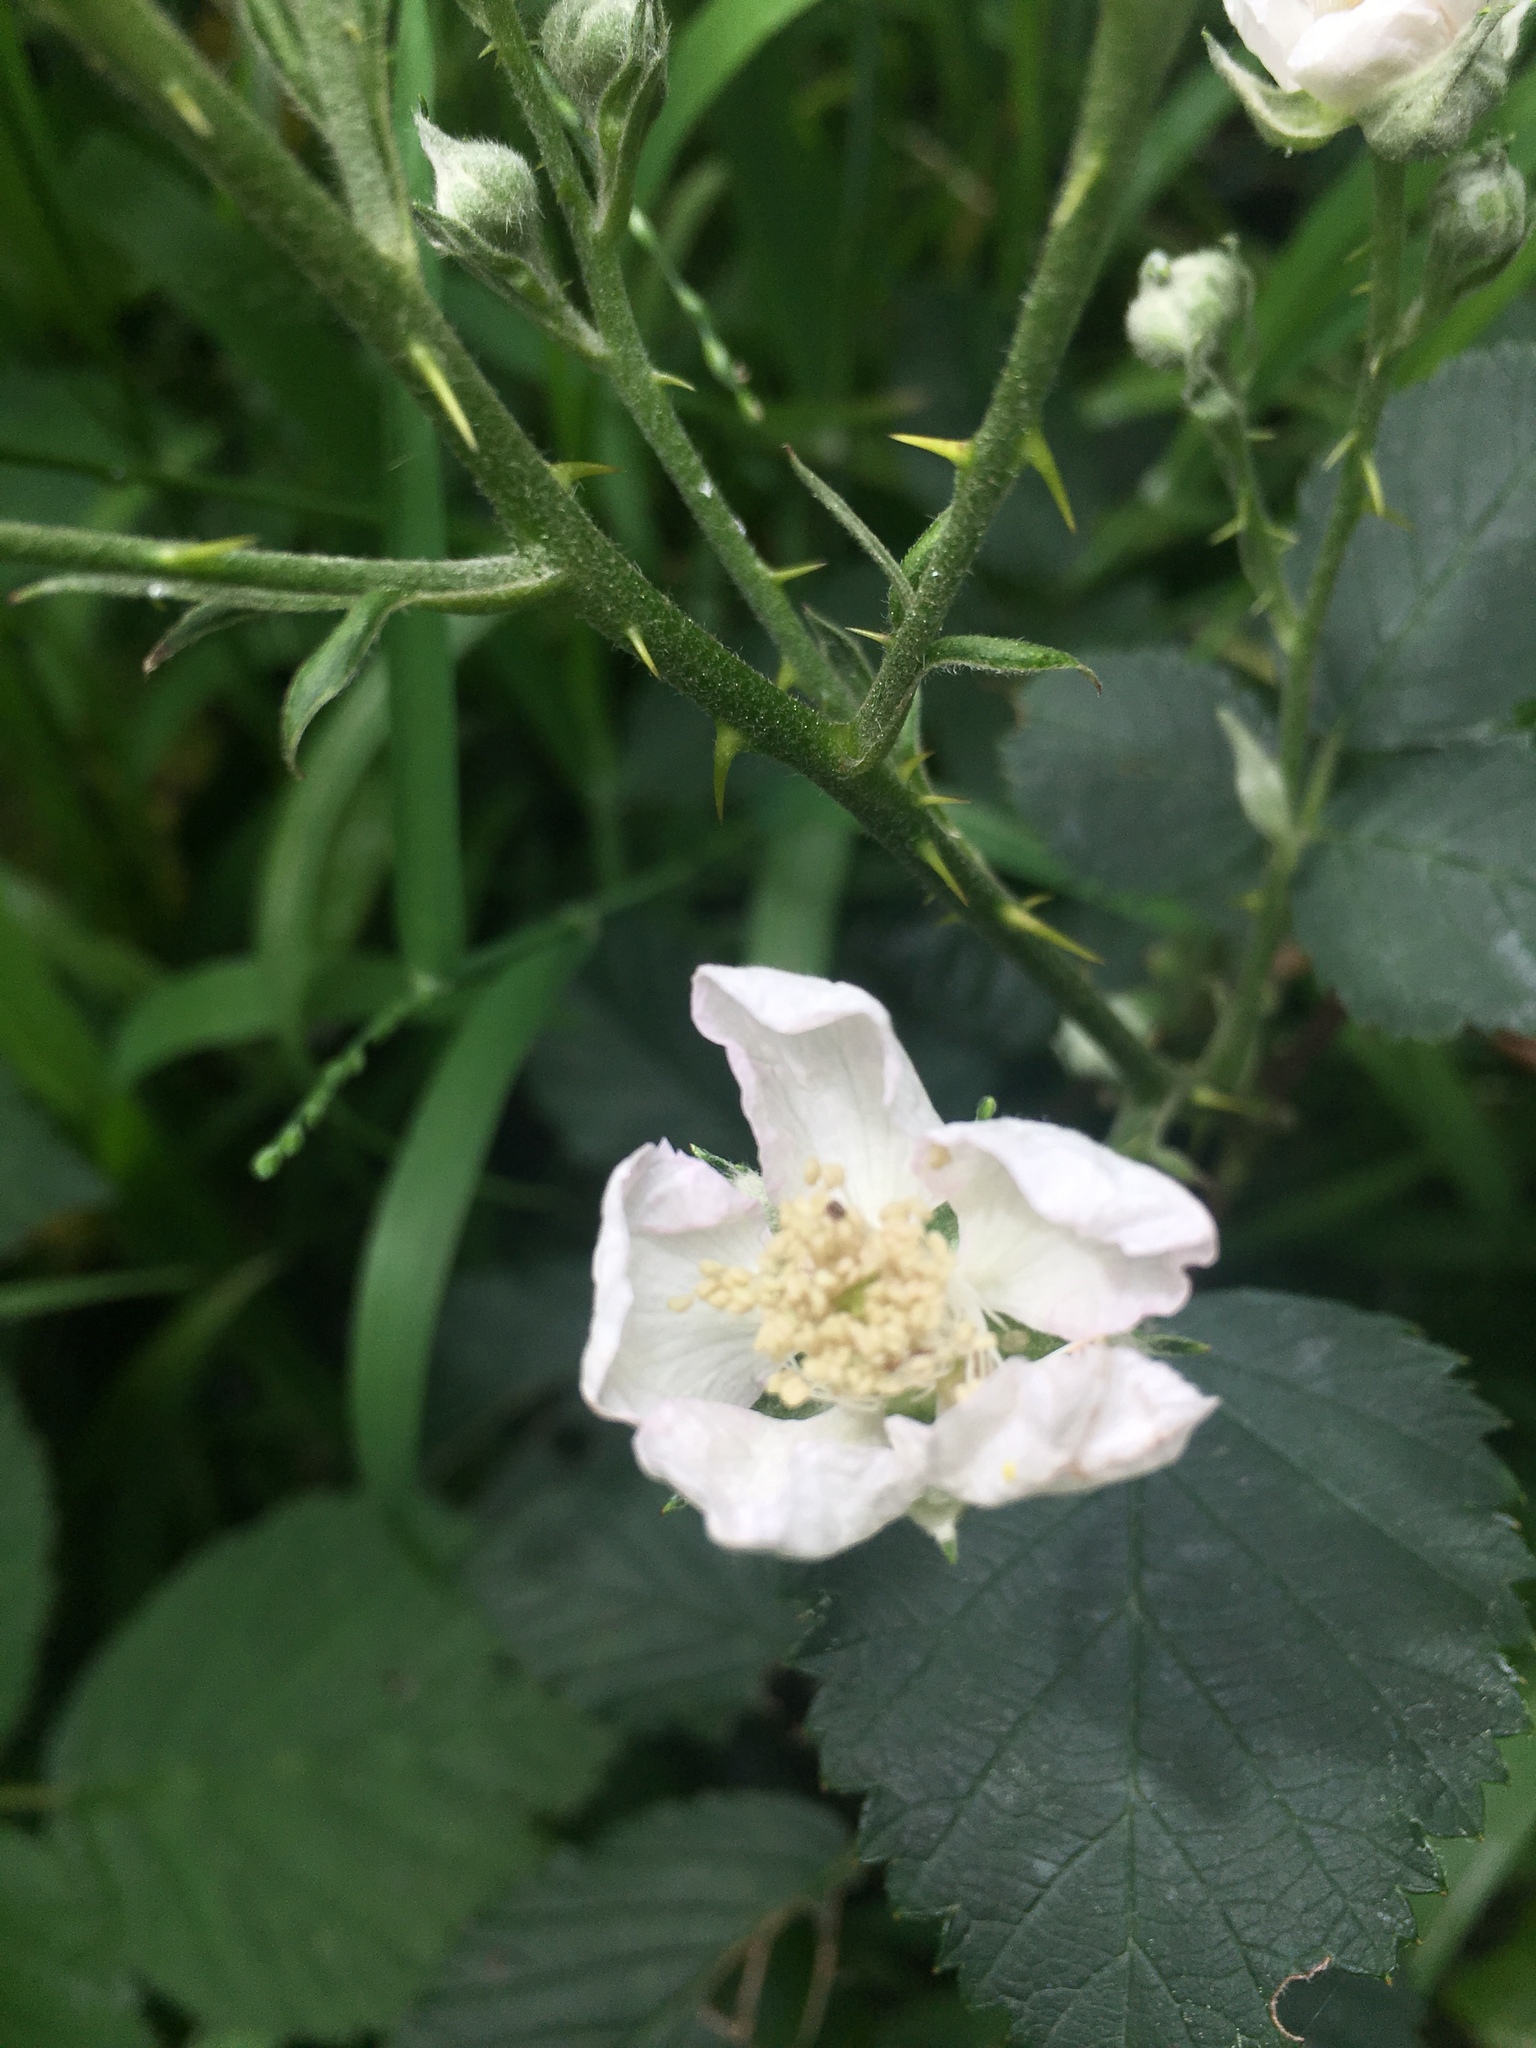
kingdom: Plantae
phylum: Tracheophyta
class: Magnoliopsida
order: Rosales
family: Rosaceae
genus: Rubus
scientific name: Rubus armeniacus
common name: Himalayan blackberry
